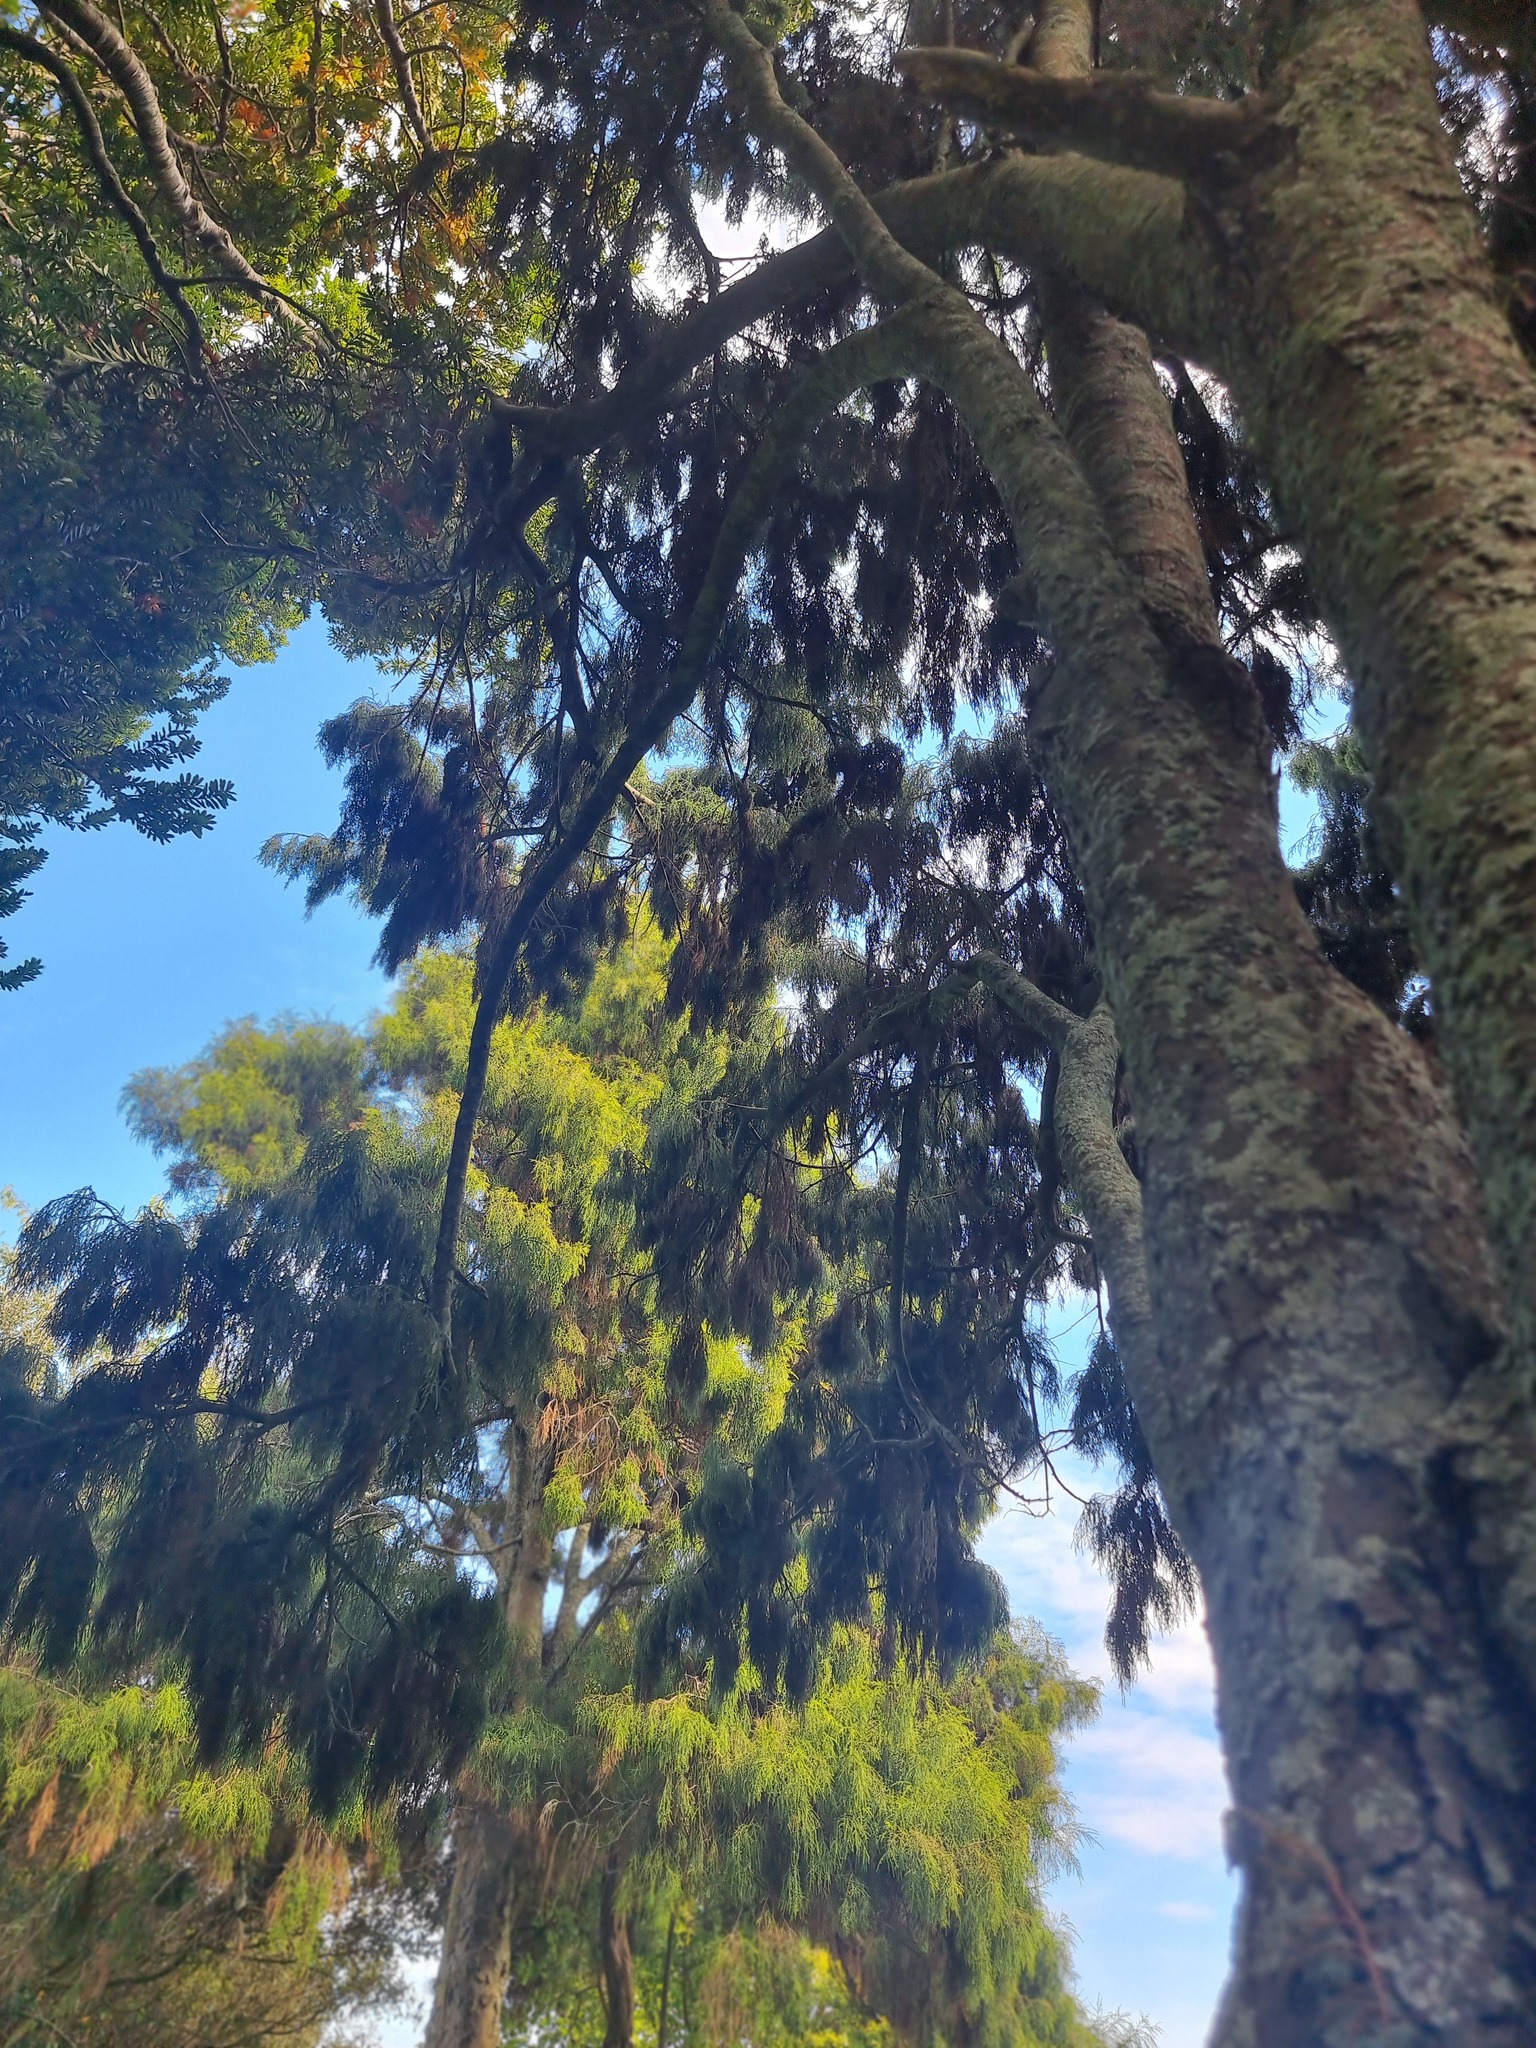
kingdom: Plantae
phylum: Tracheophyta
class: Pinopsida
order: Pinales
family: Podocarpaceae
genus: Dacrydium
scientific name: Dacrydium cupressinum
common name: Red pine
